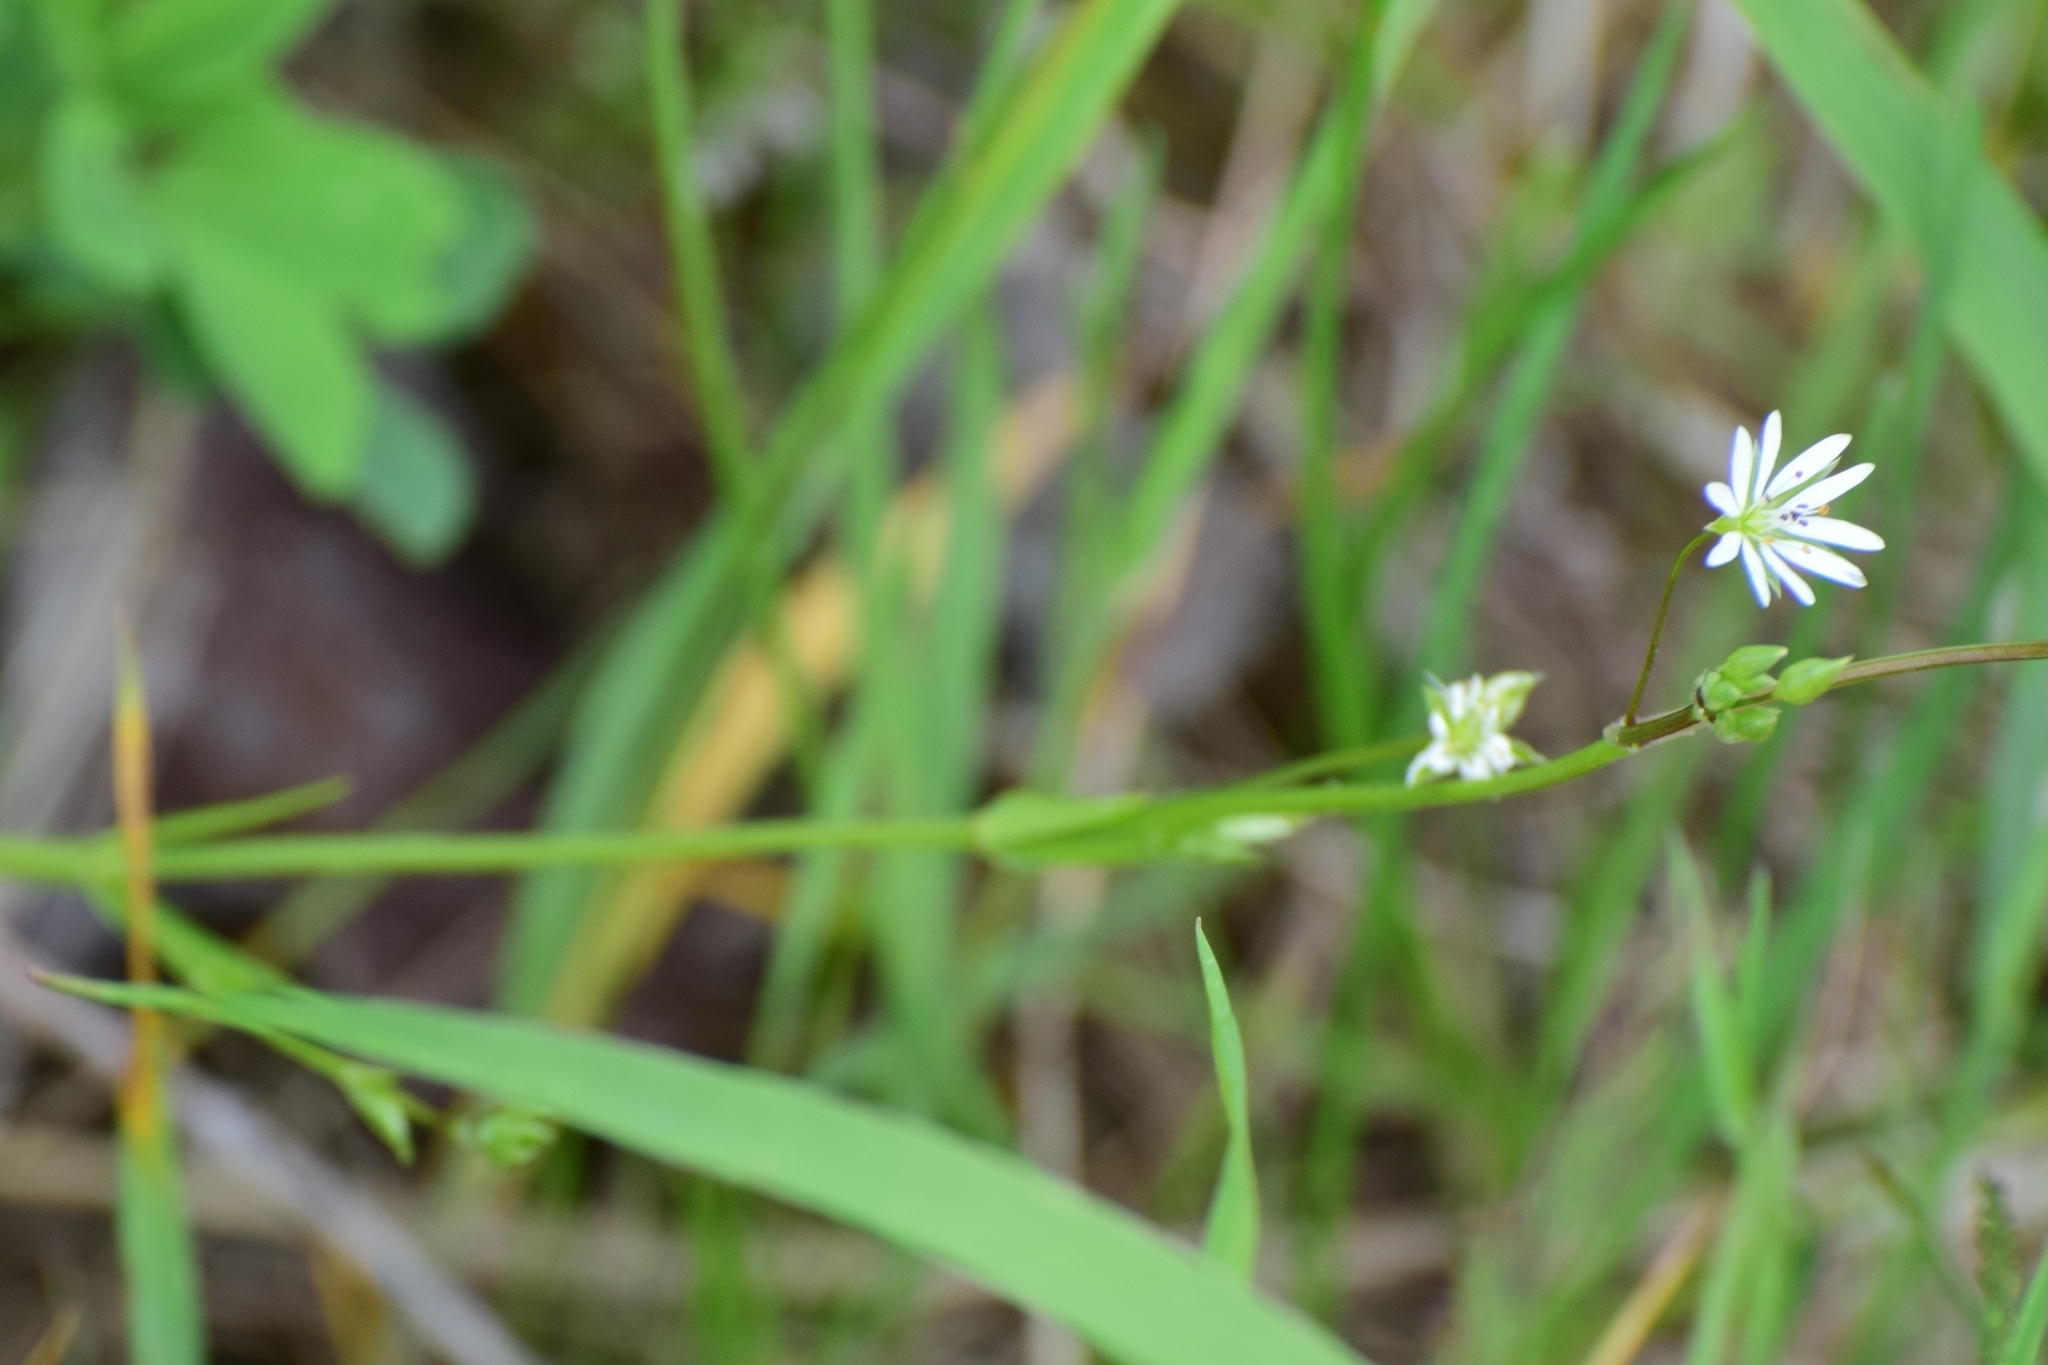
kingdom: Plantae
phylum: Tracheophyta
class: Magnoliopsida
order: Caryophyllales
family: Caryophyllaceae
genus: Stellaria
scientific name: Stellaria graminea
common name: Grass-like starwort
